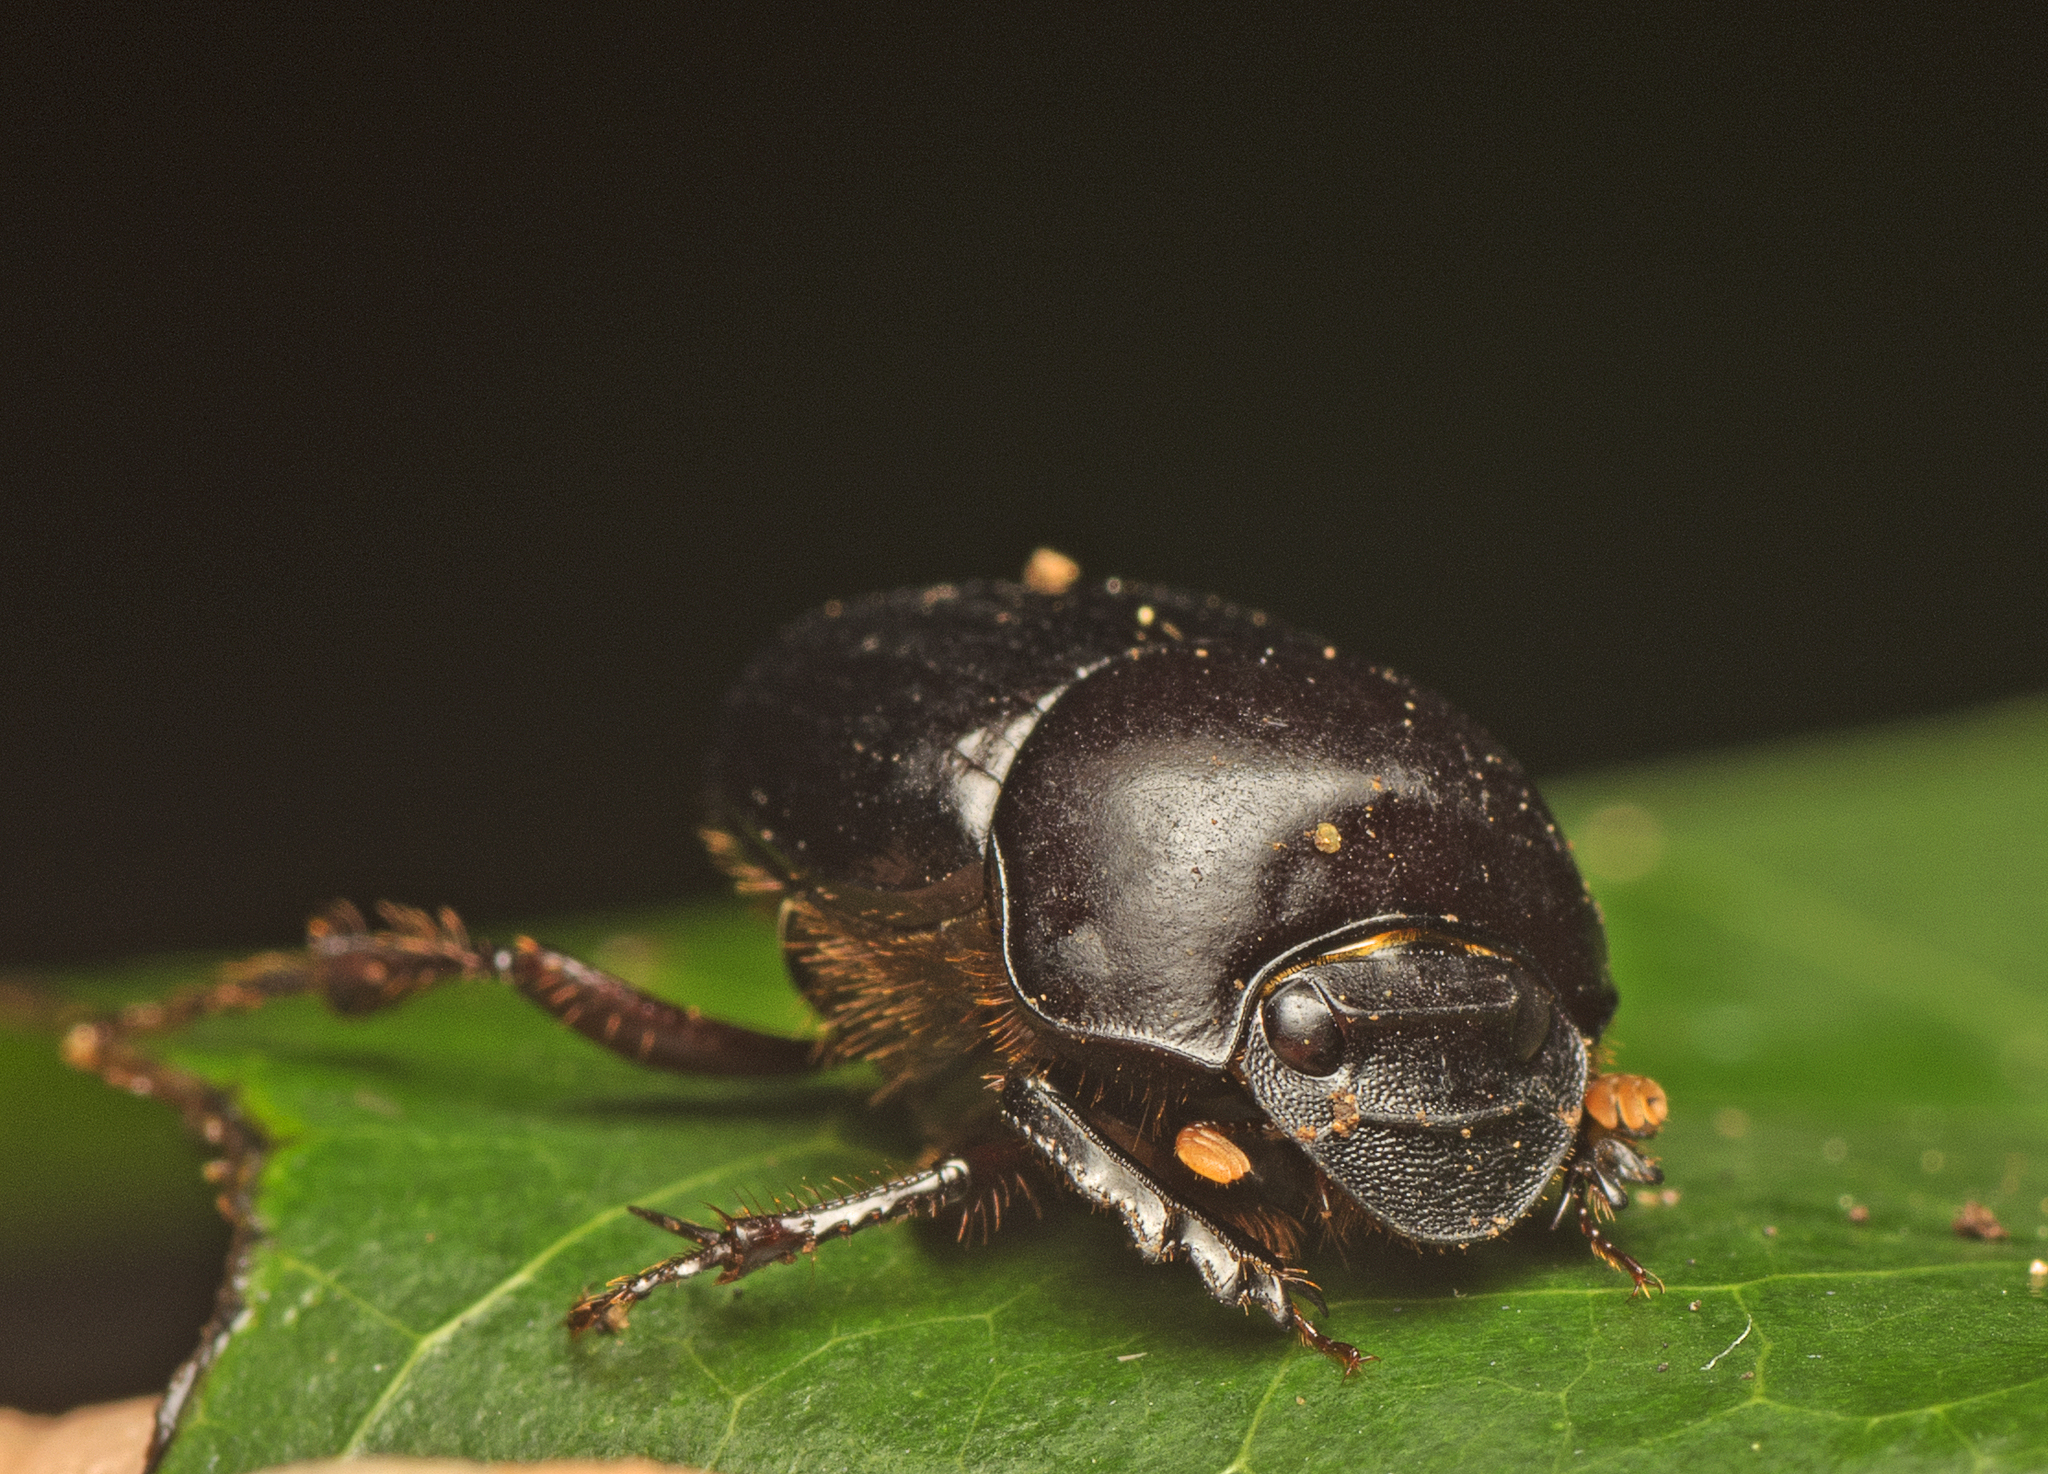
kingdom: Animalia
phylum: Arthropoda
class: Insecta
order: Coleoptera
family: Scarabaeidae
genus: Onthophagus
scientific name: Onthophagus neostenocerus
